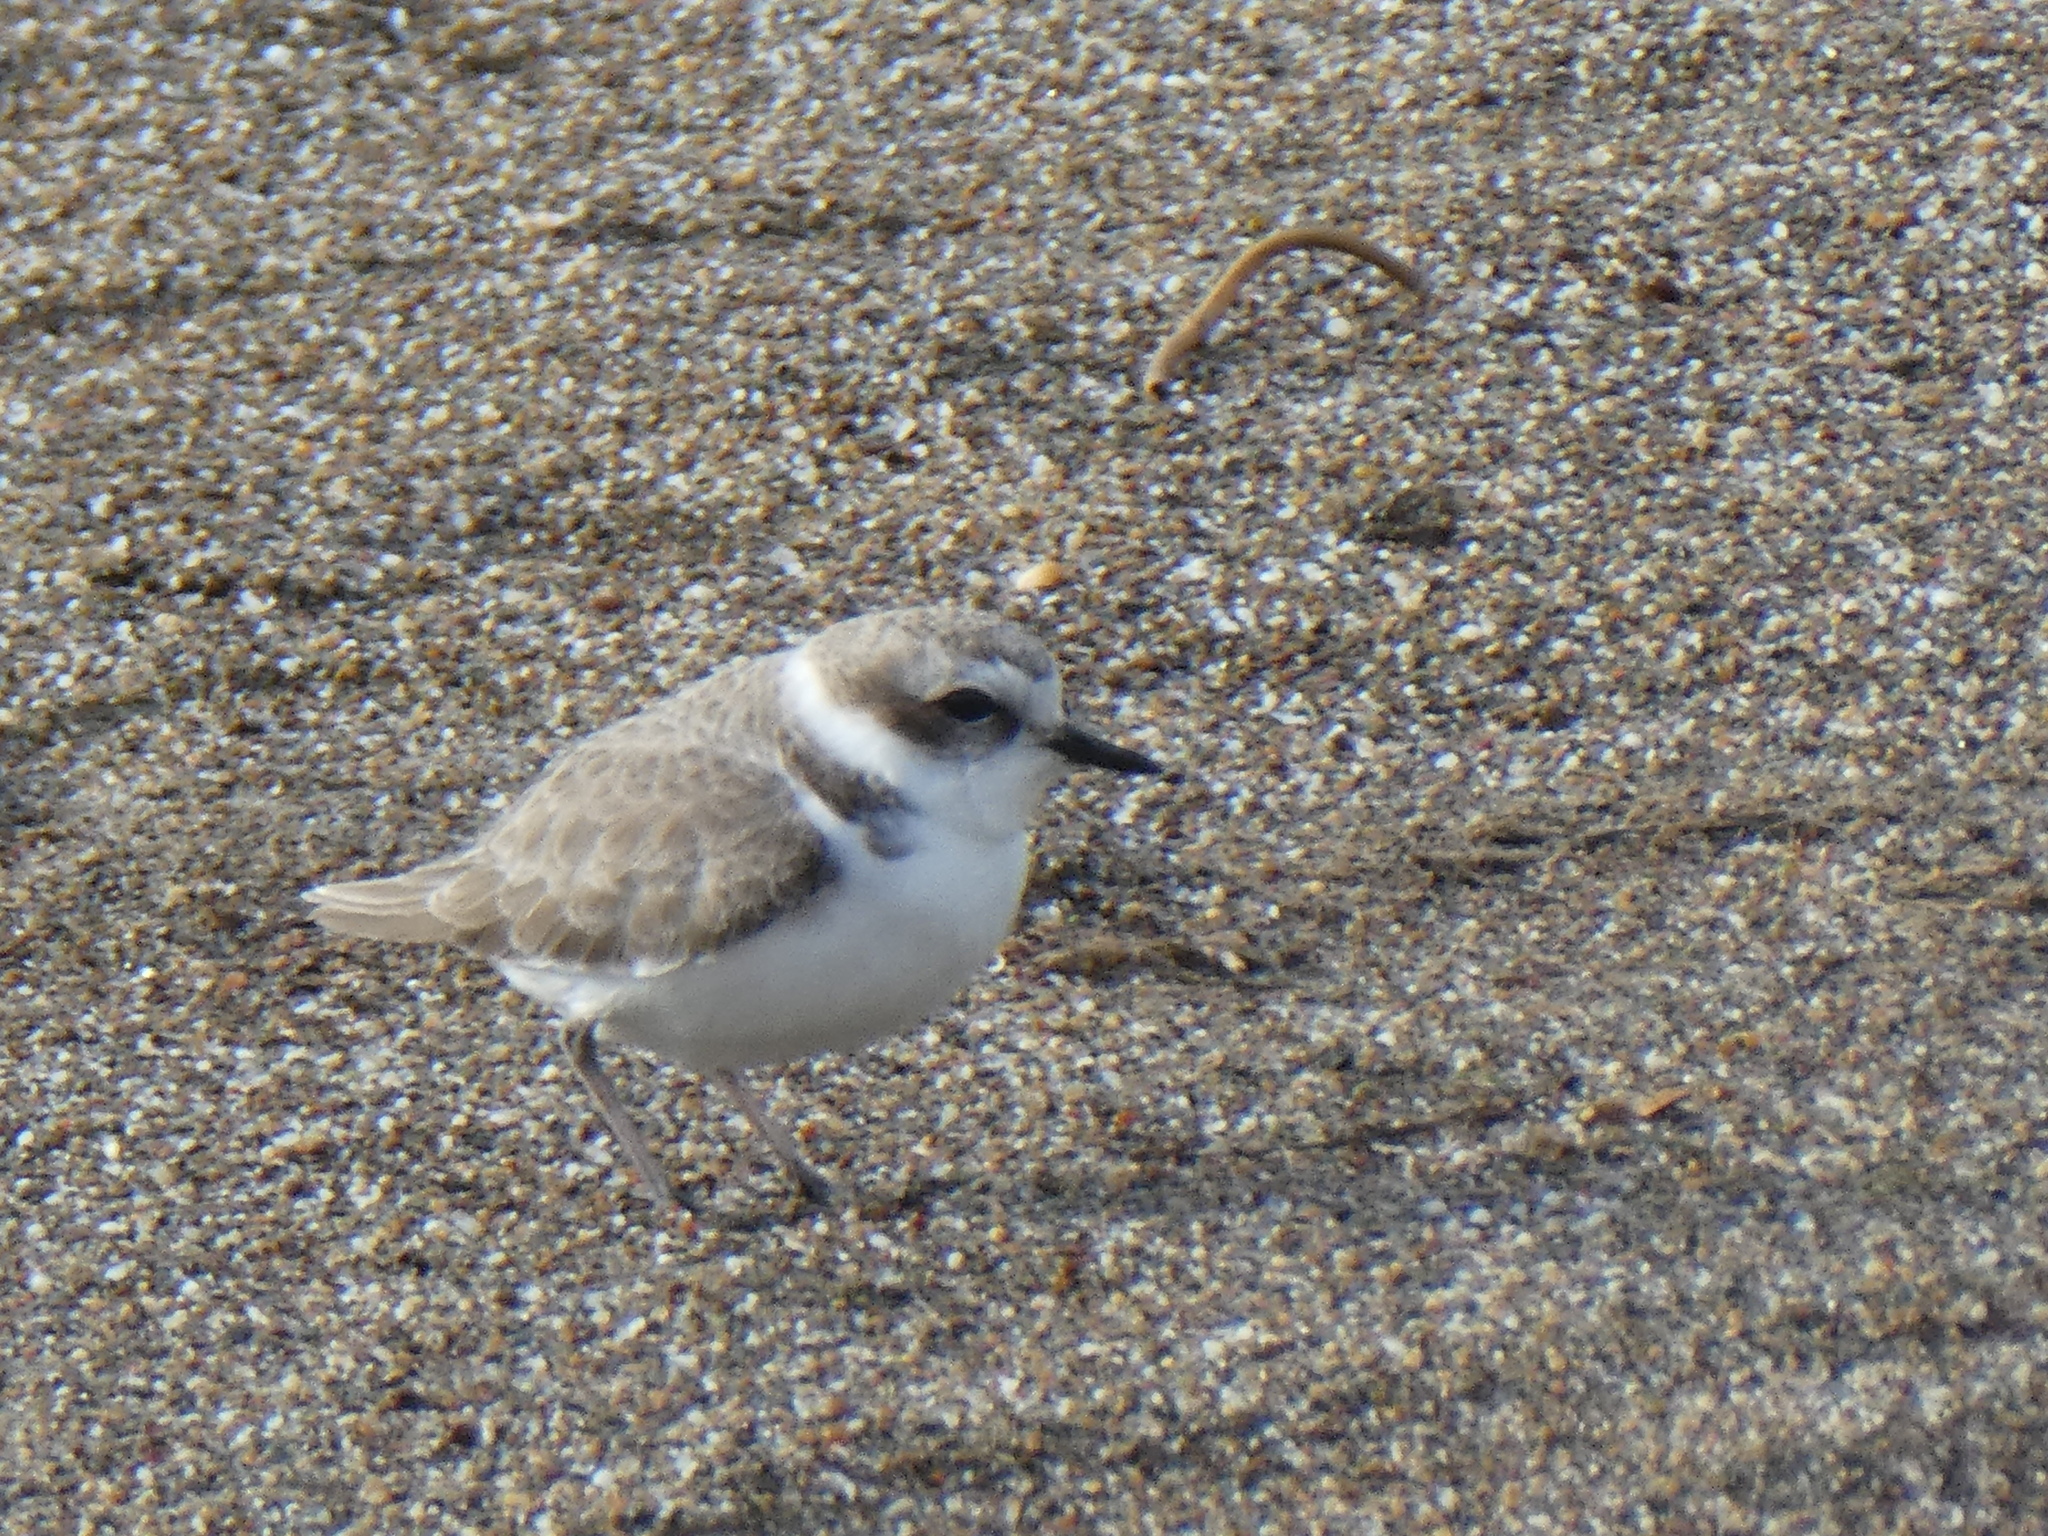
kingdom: Animalia
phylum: Chordata
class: Aves
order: Charadriiformes
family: Charadriidae
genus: Anarhynchus
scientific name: Anarhynchus
